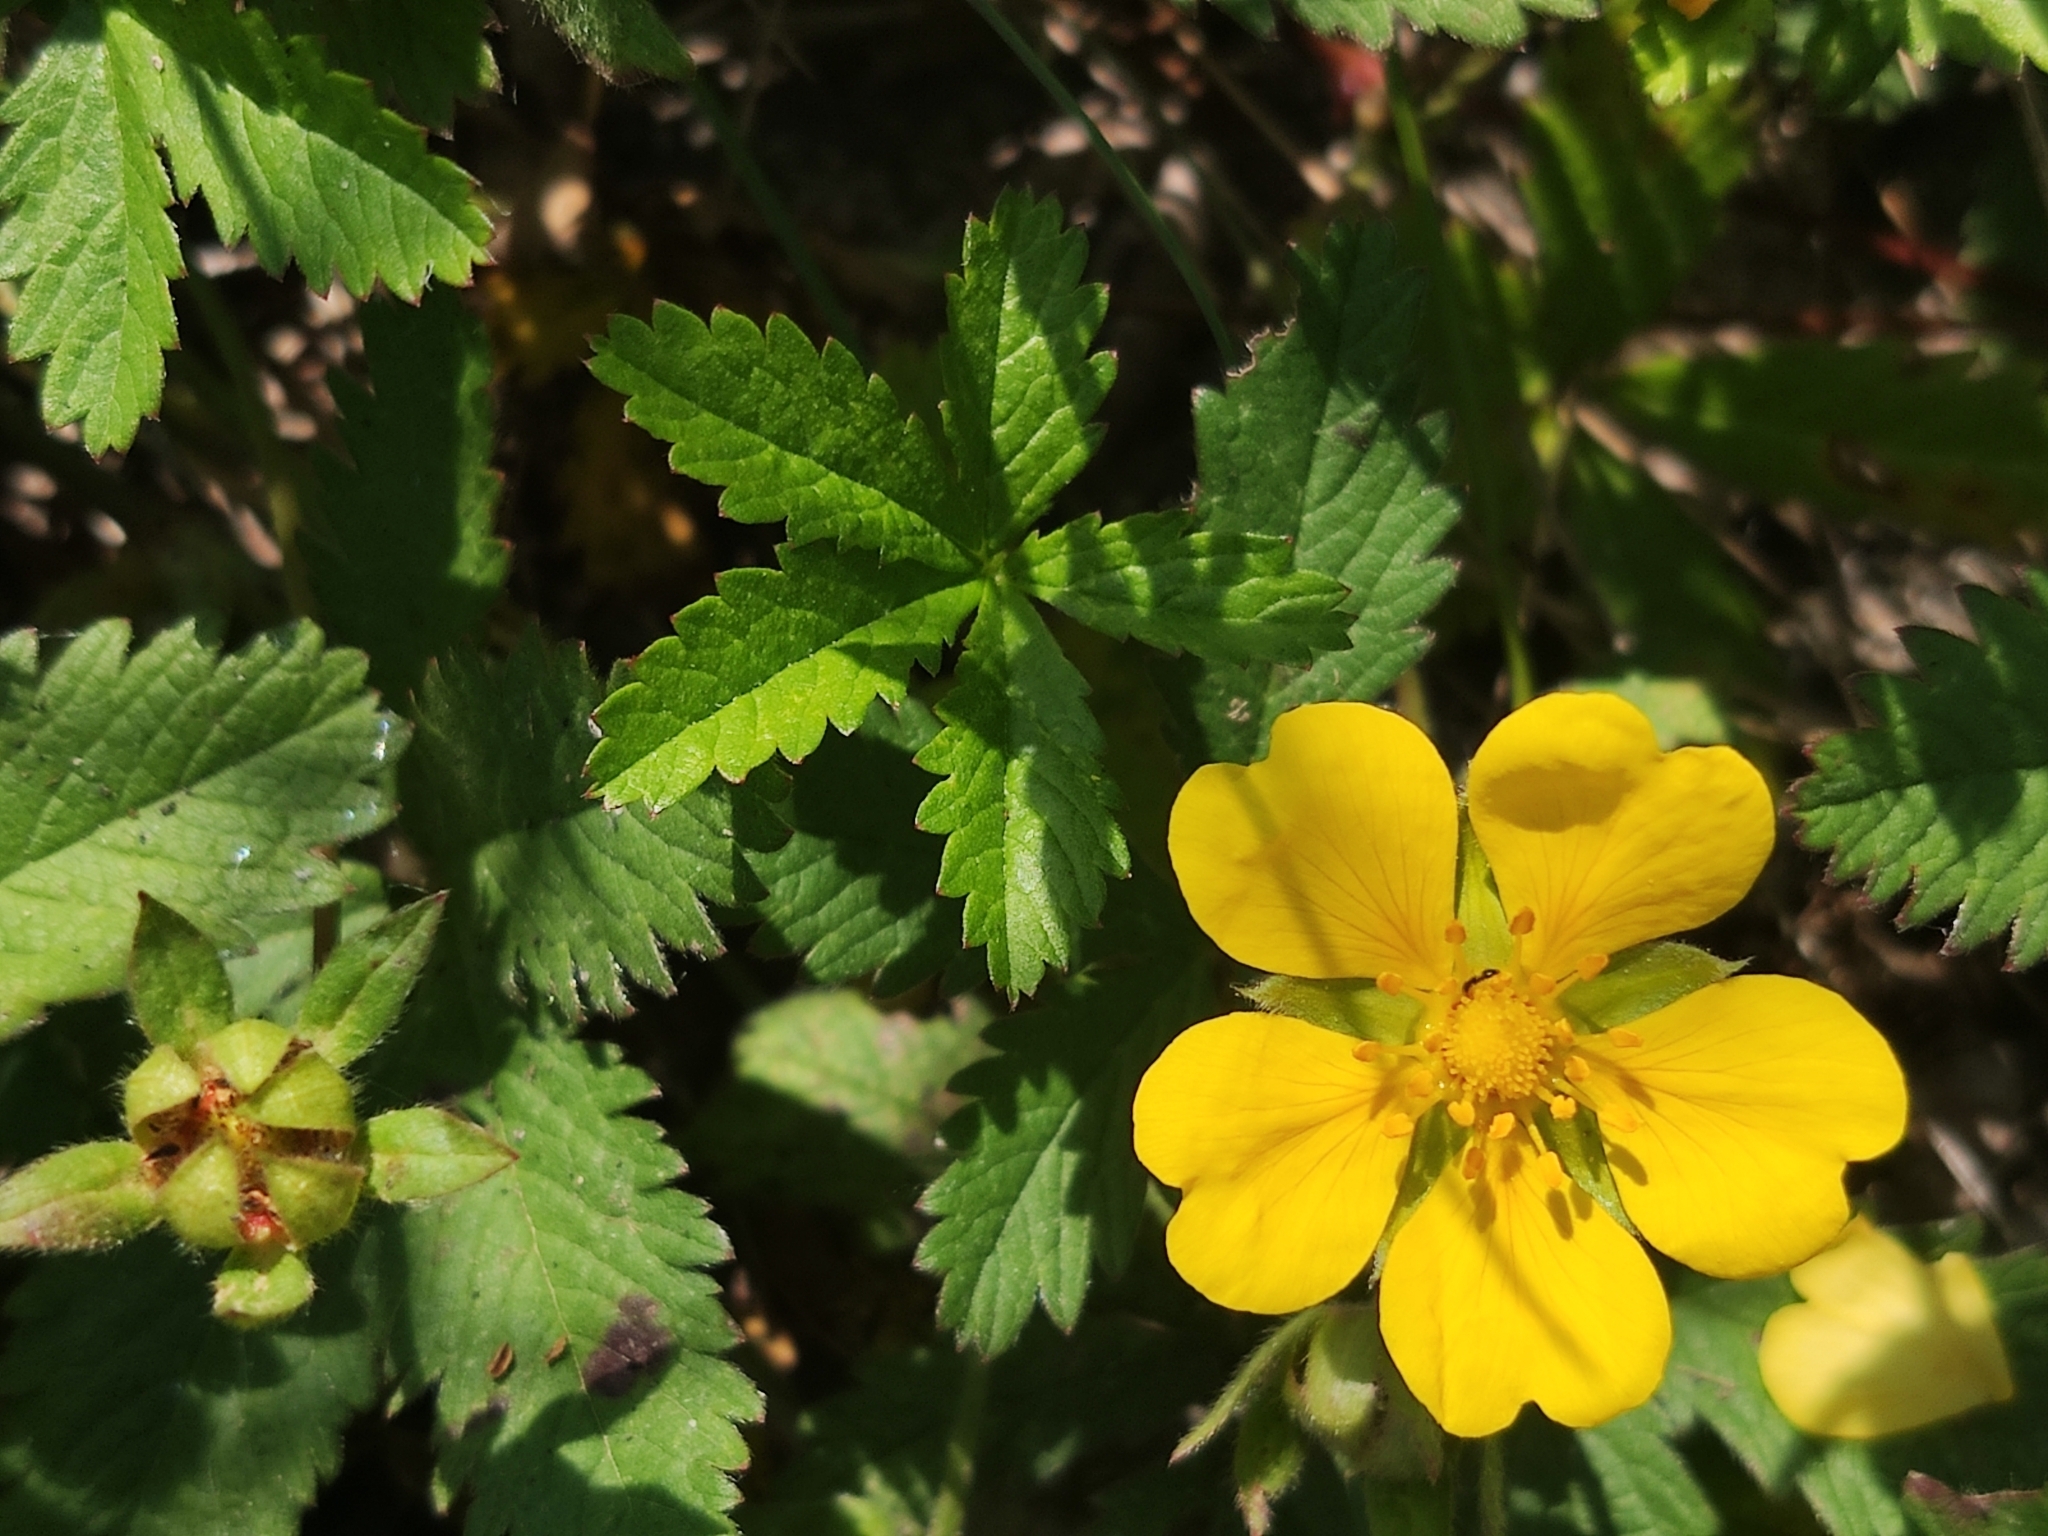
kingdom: Plantae
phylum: Tracheophyta
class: Magnoliopsida
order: Rosales
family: Rosaceae
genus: Potentilla
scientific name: Potentilla reptans
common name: Creeping cinquefoil
